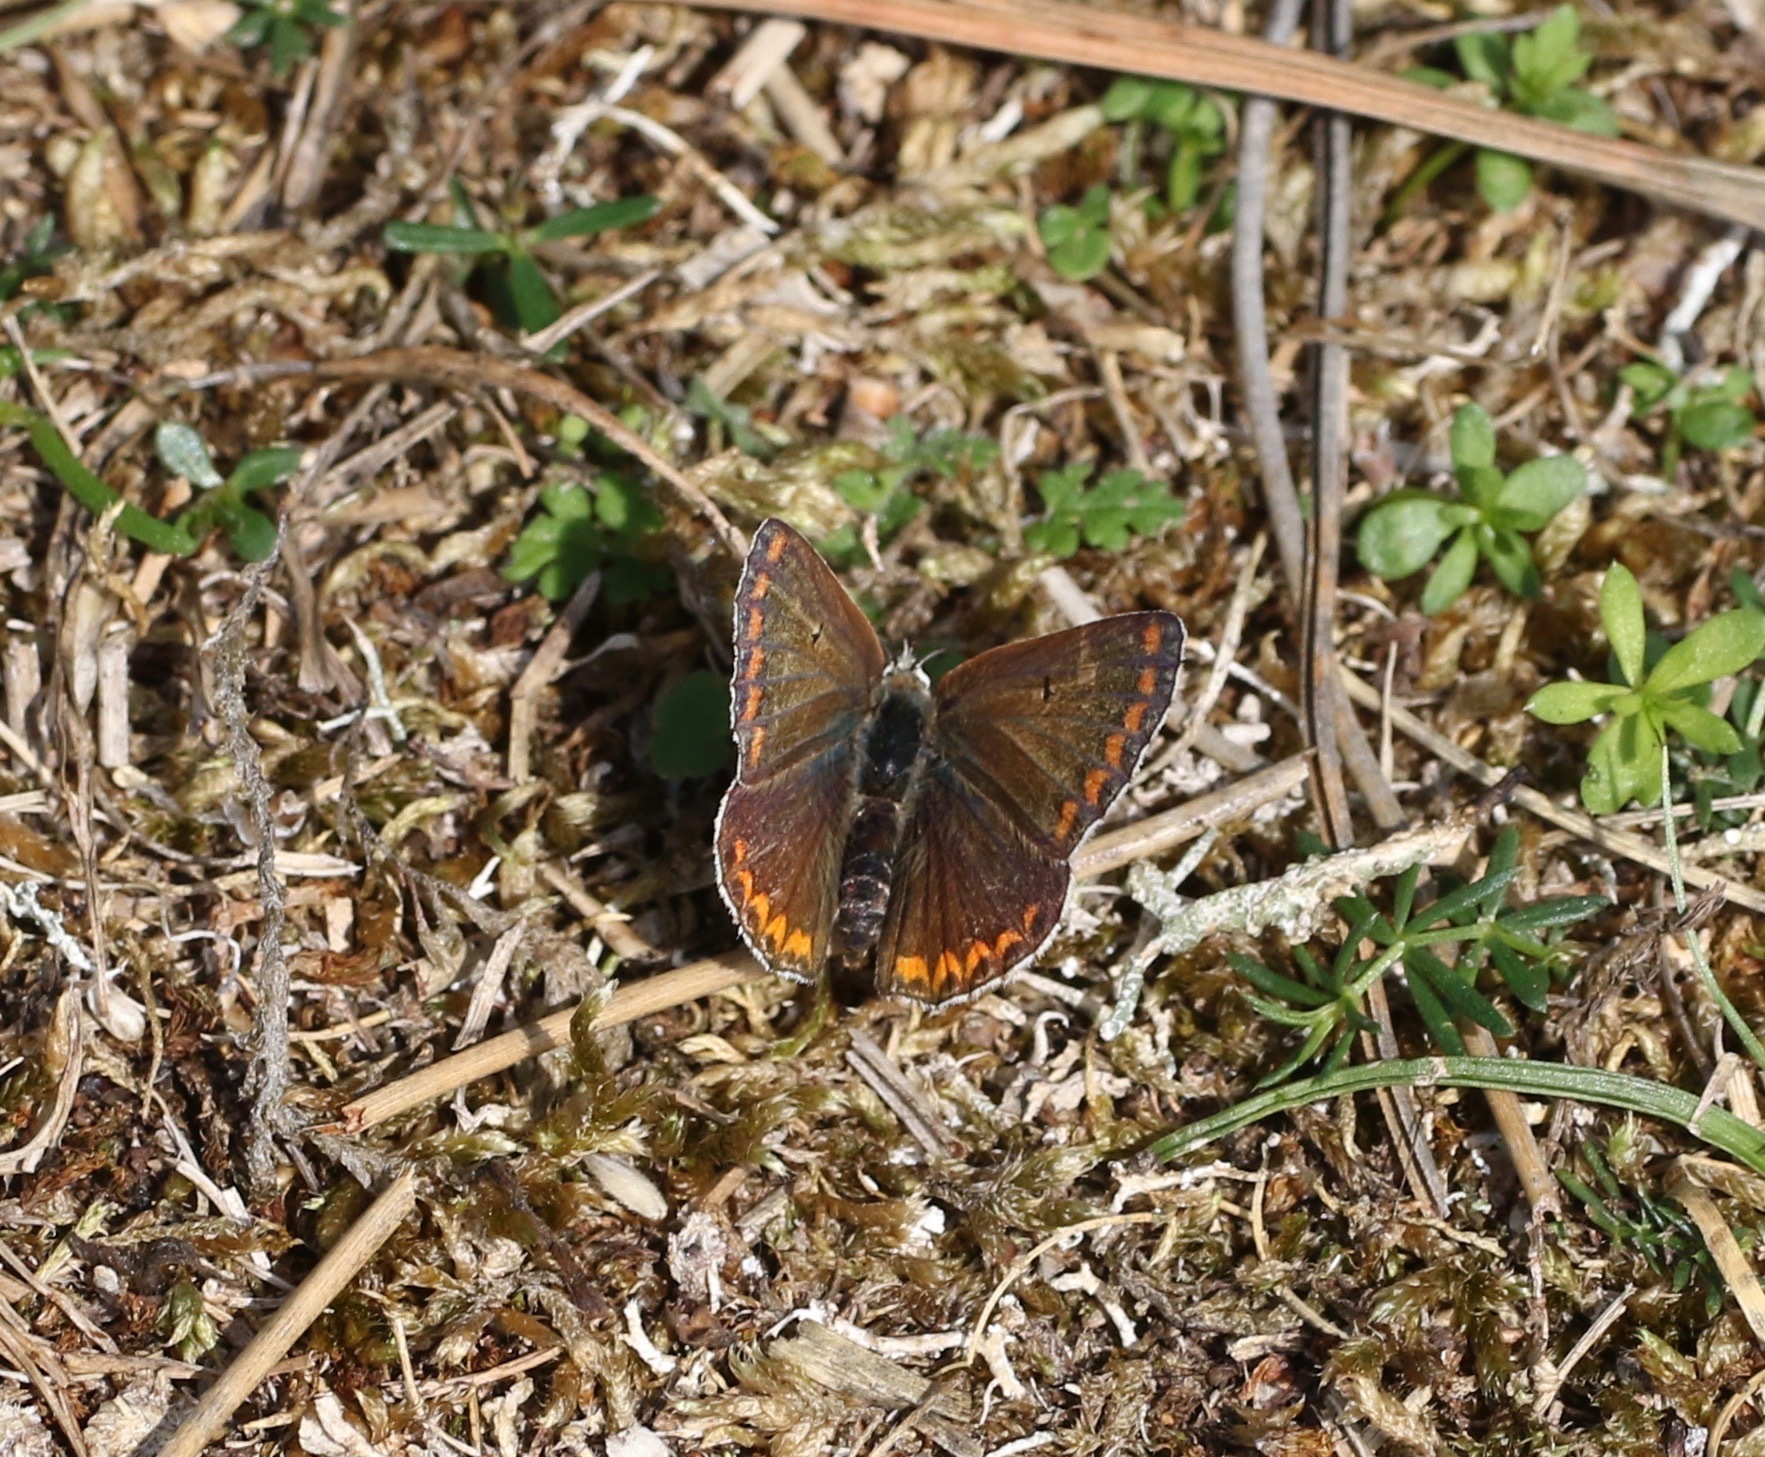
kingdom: Animalia
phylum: Arthropoda
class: Insecta
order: Lepidoptera
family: Lycaenidae
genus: Aricia
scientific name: Aricia agestis
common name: Brown argus
